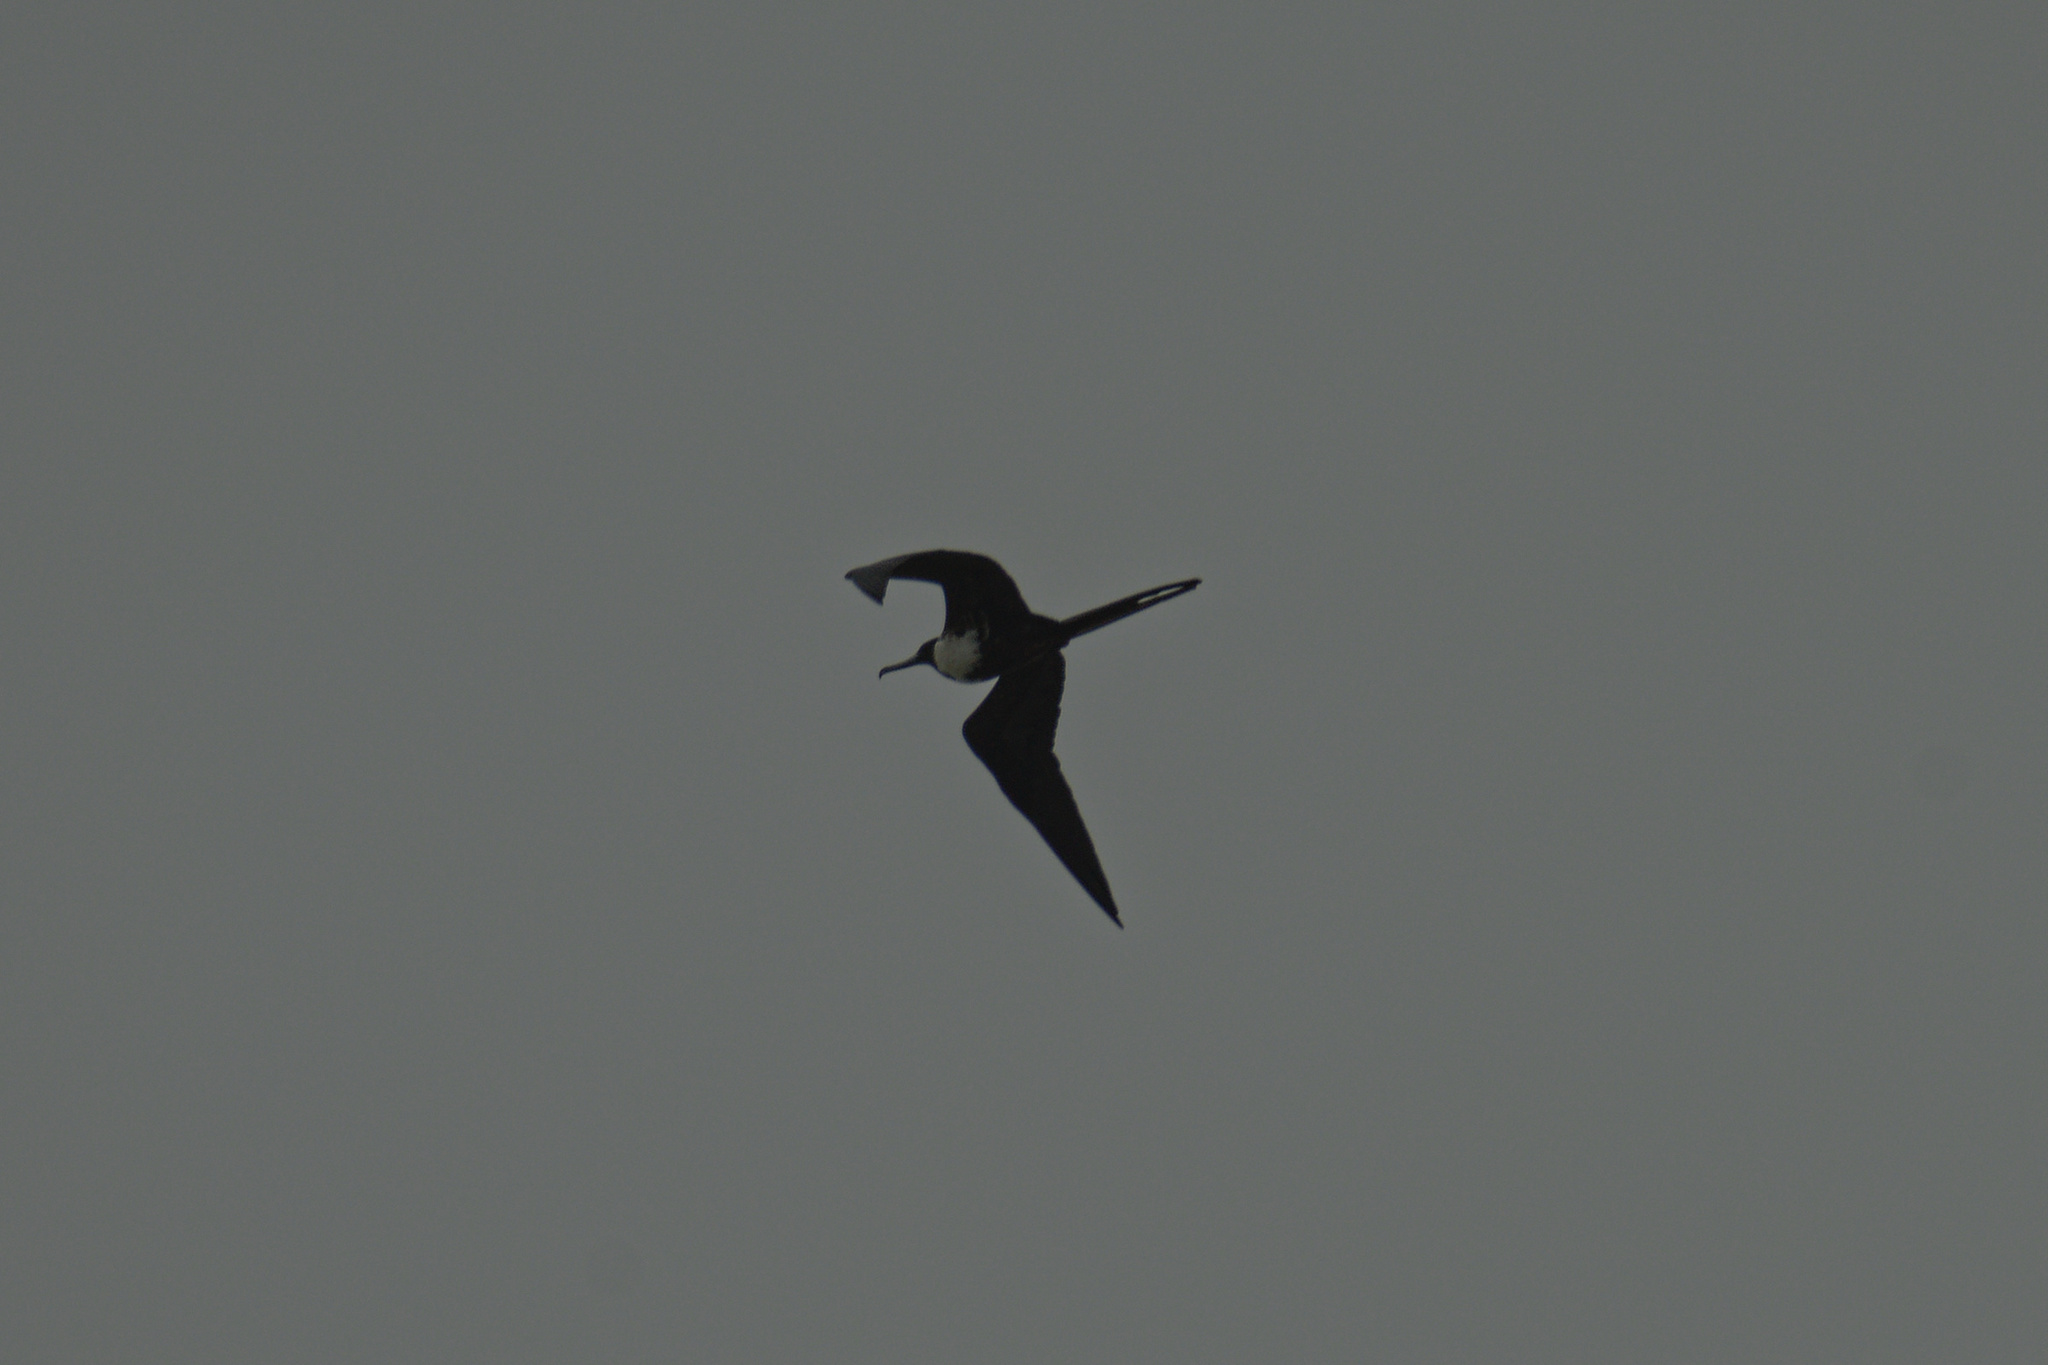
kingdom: Animalia
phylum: Chordata
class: Aves
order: Suliformes
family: Fregatidae
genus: Fregata
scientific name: Fregata magnificens
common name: Magnificent frigatebird
